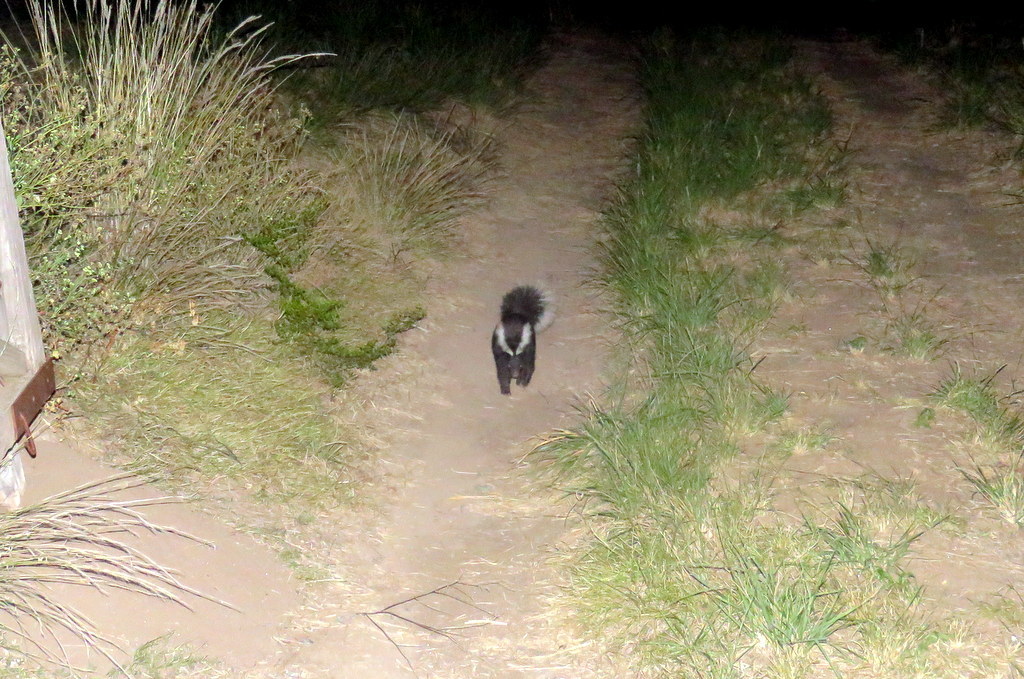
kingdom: Animalia
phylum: Chordata
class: Mammalia
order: Carnivora
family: Mephitidae
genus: Conepatus
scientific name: Conepatus chinga
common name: Molina's hog-nosed skunk
